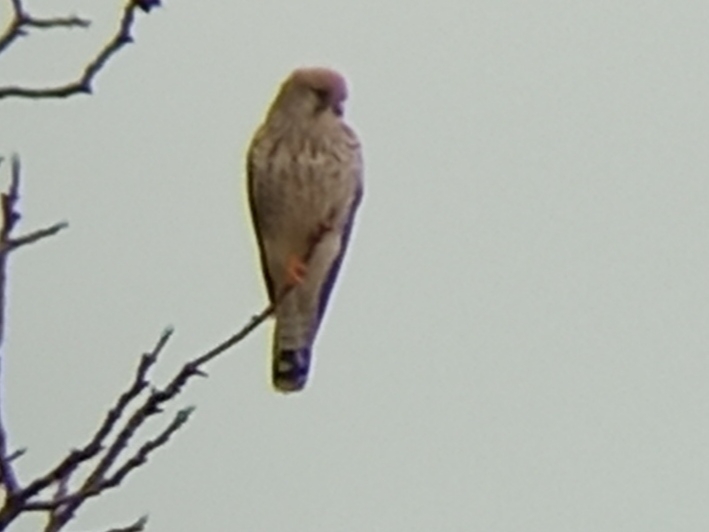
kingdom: Animalia
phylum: Chordata
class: Aves
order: Falconiformes
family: Falconidae
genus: Falco
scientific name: Falco tinnunculus
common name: Common kestrel
